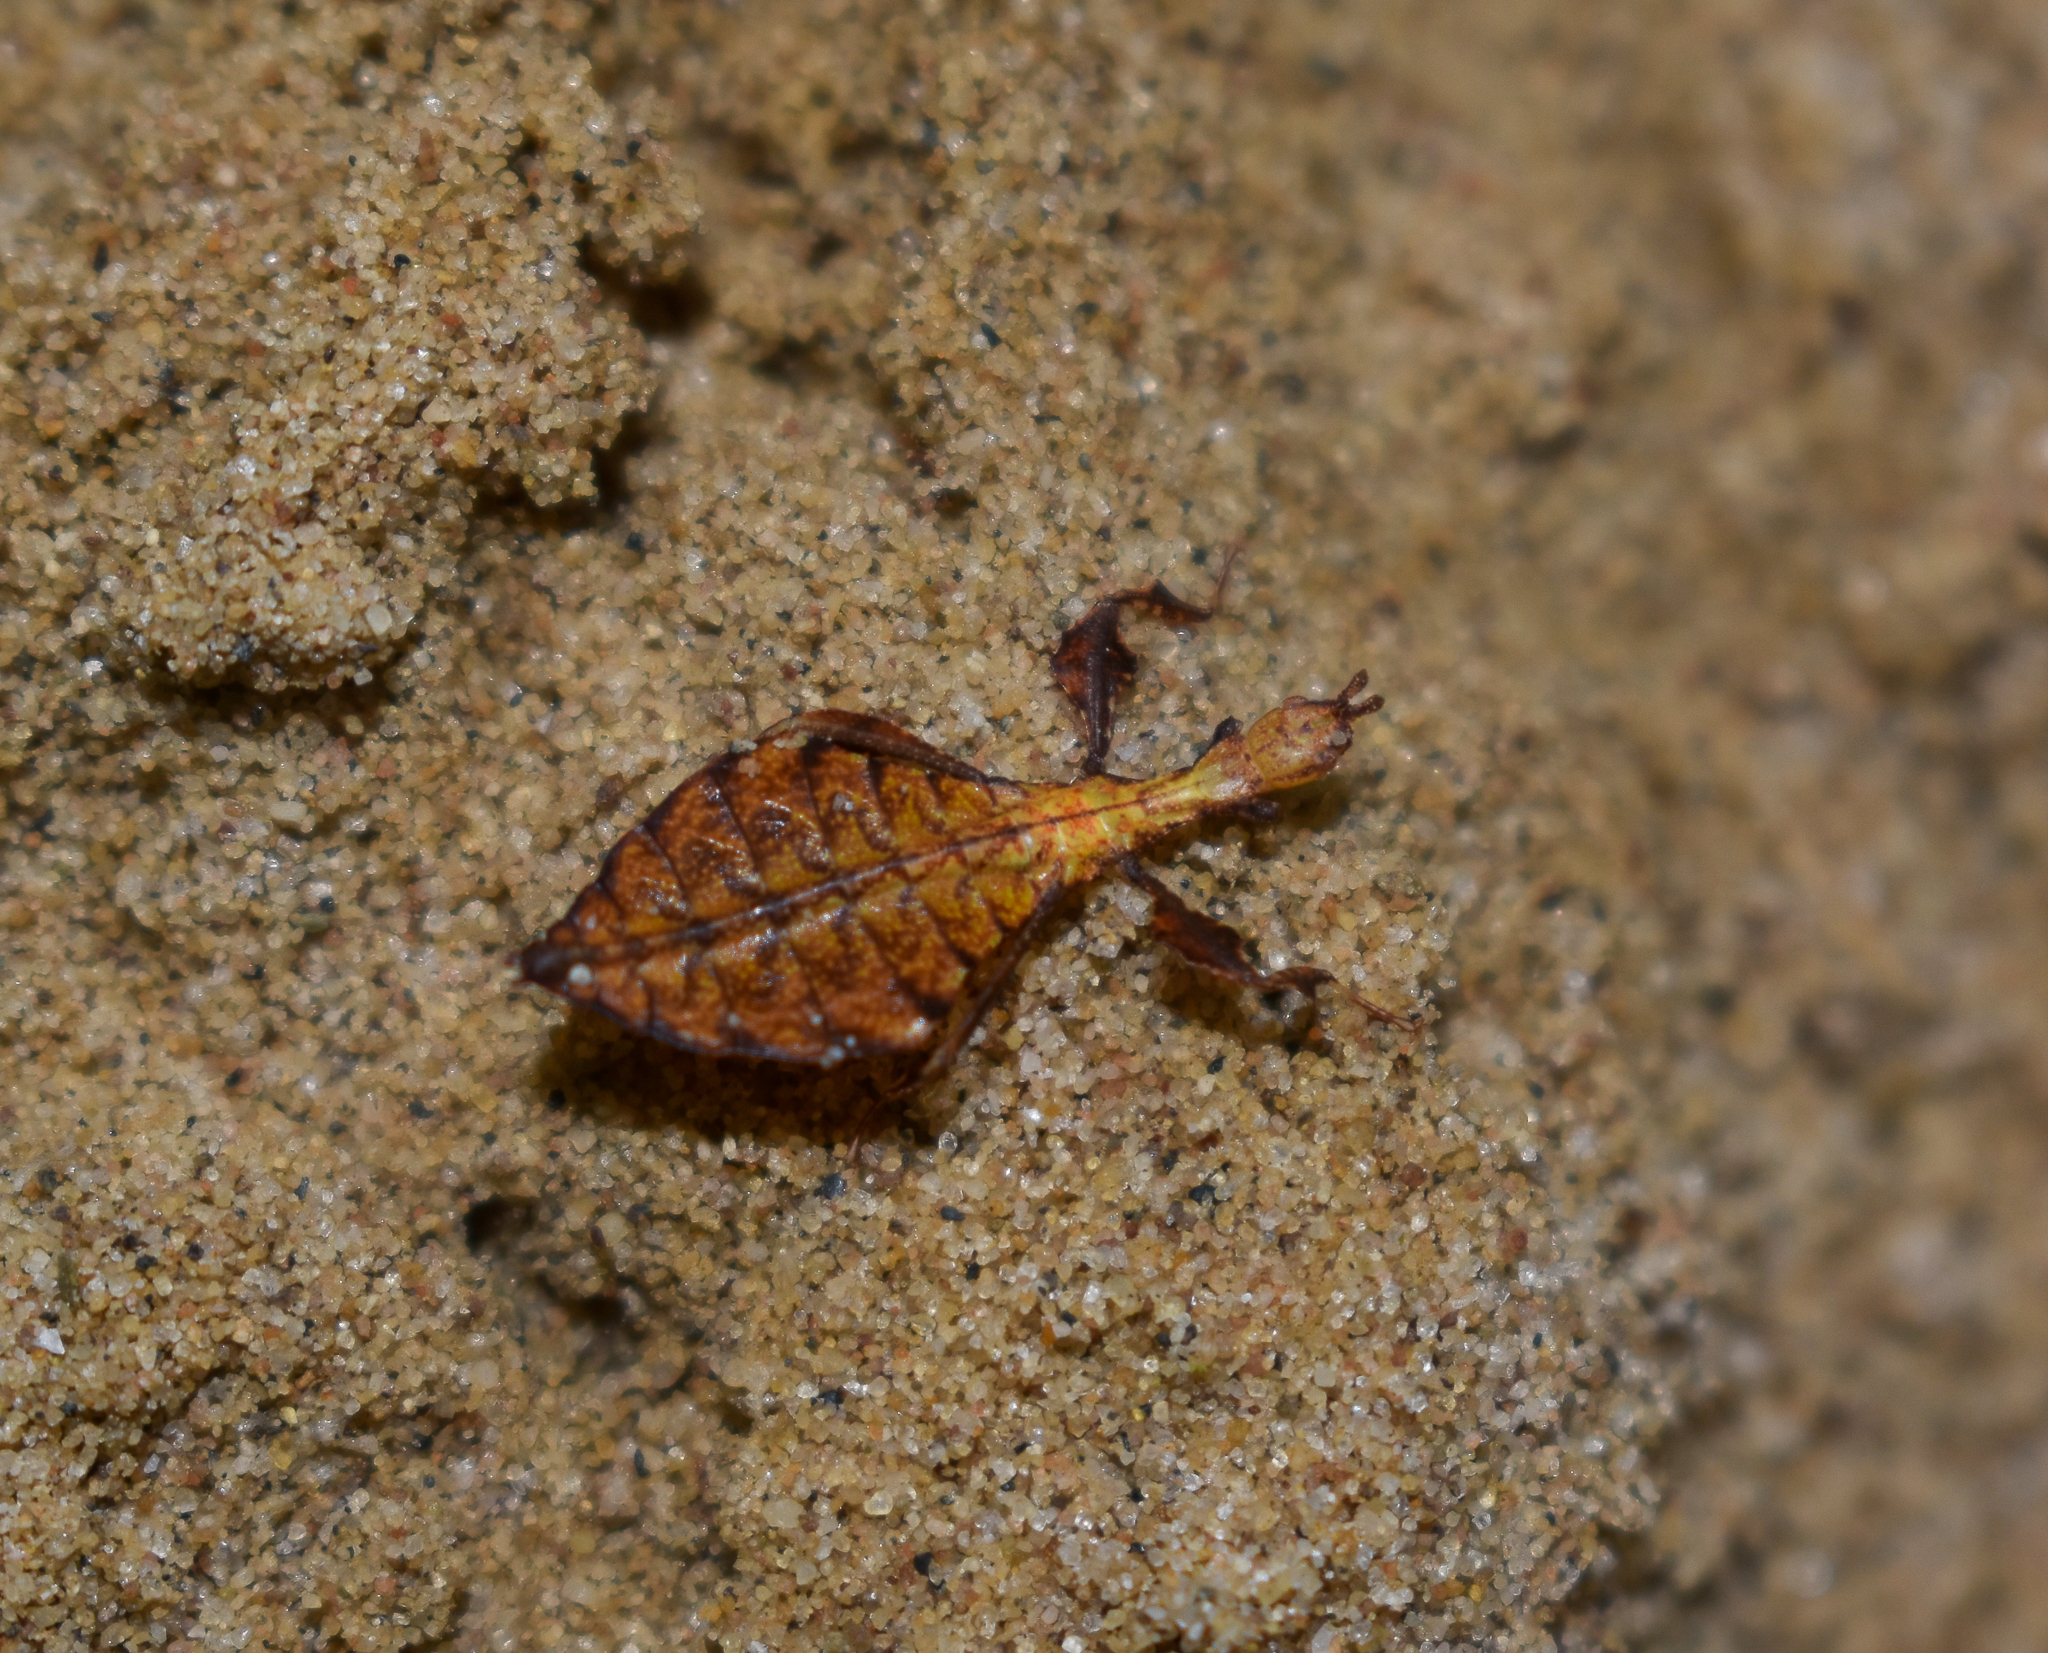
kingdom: Animalia
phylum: Arthropoda
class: Insecta
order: Phasmida
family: Phylliidae
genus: Pulchriphyllium
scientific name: Pulchriphyllium bioculatum
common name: Gray's leaf insect
